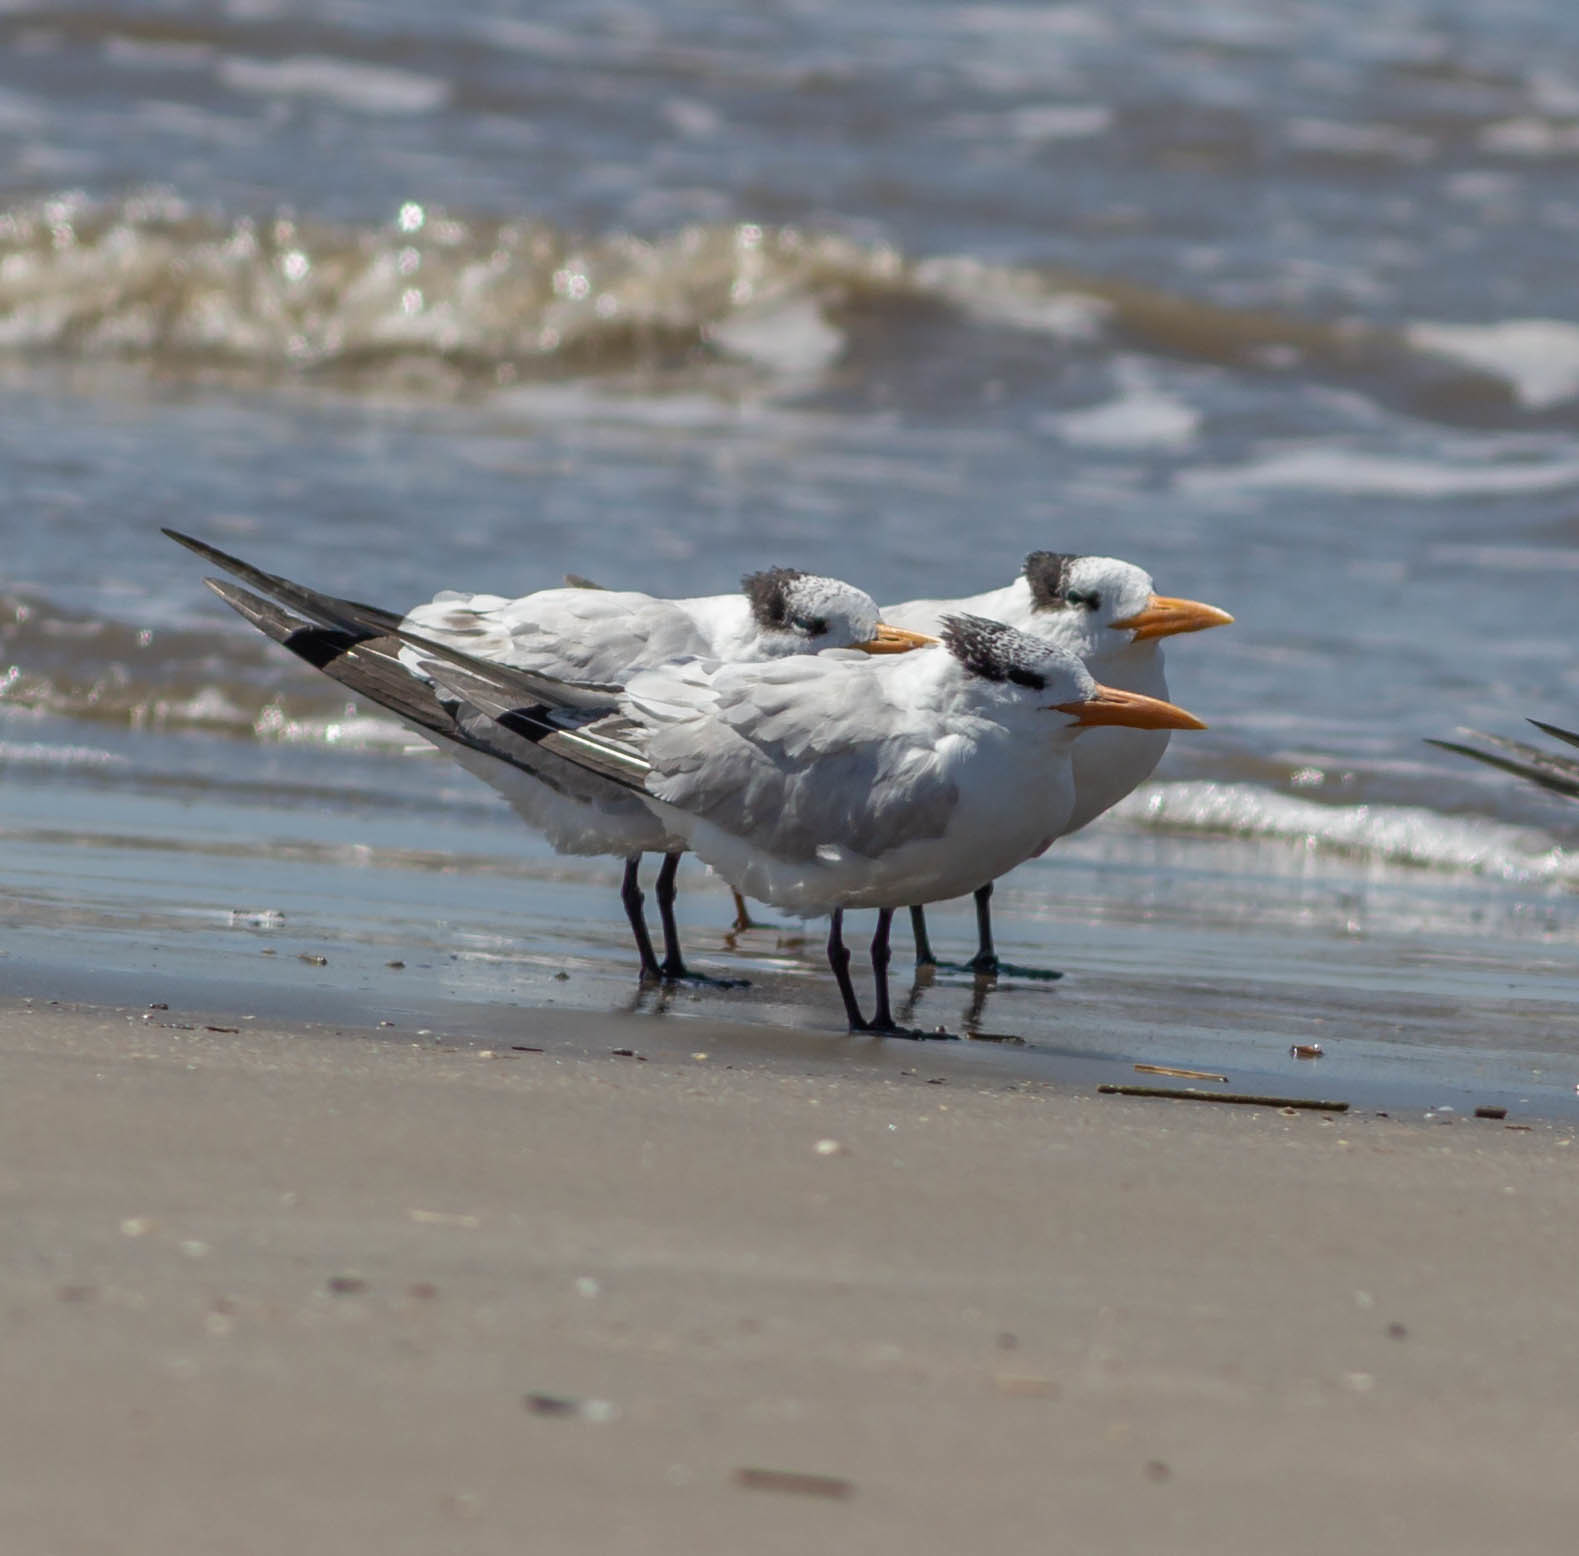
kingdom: Animalia
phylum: Chordata
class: Aves
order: Charadriiformes
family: Laridae
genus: Thalasseus
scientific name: Thalasseus maximus
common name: Royal tern
